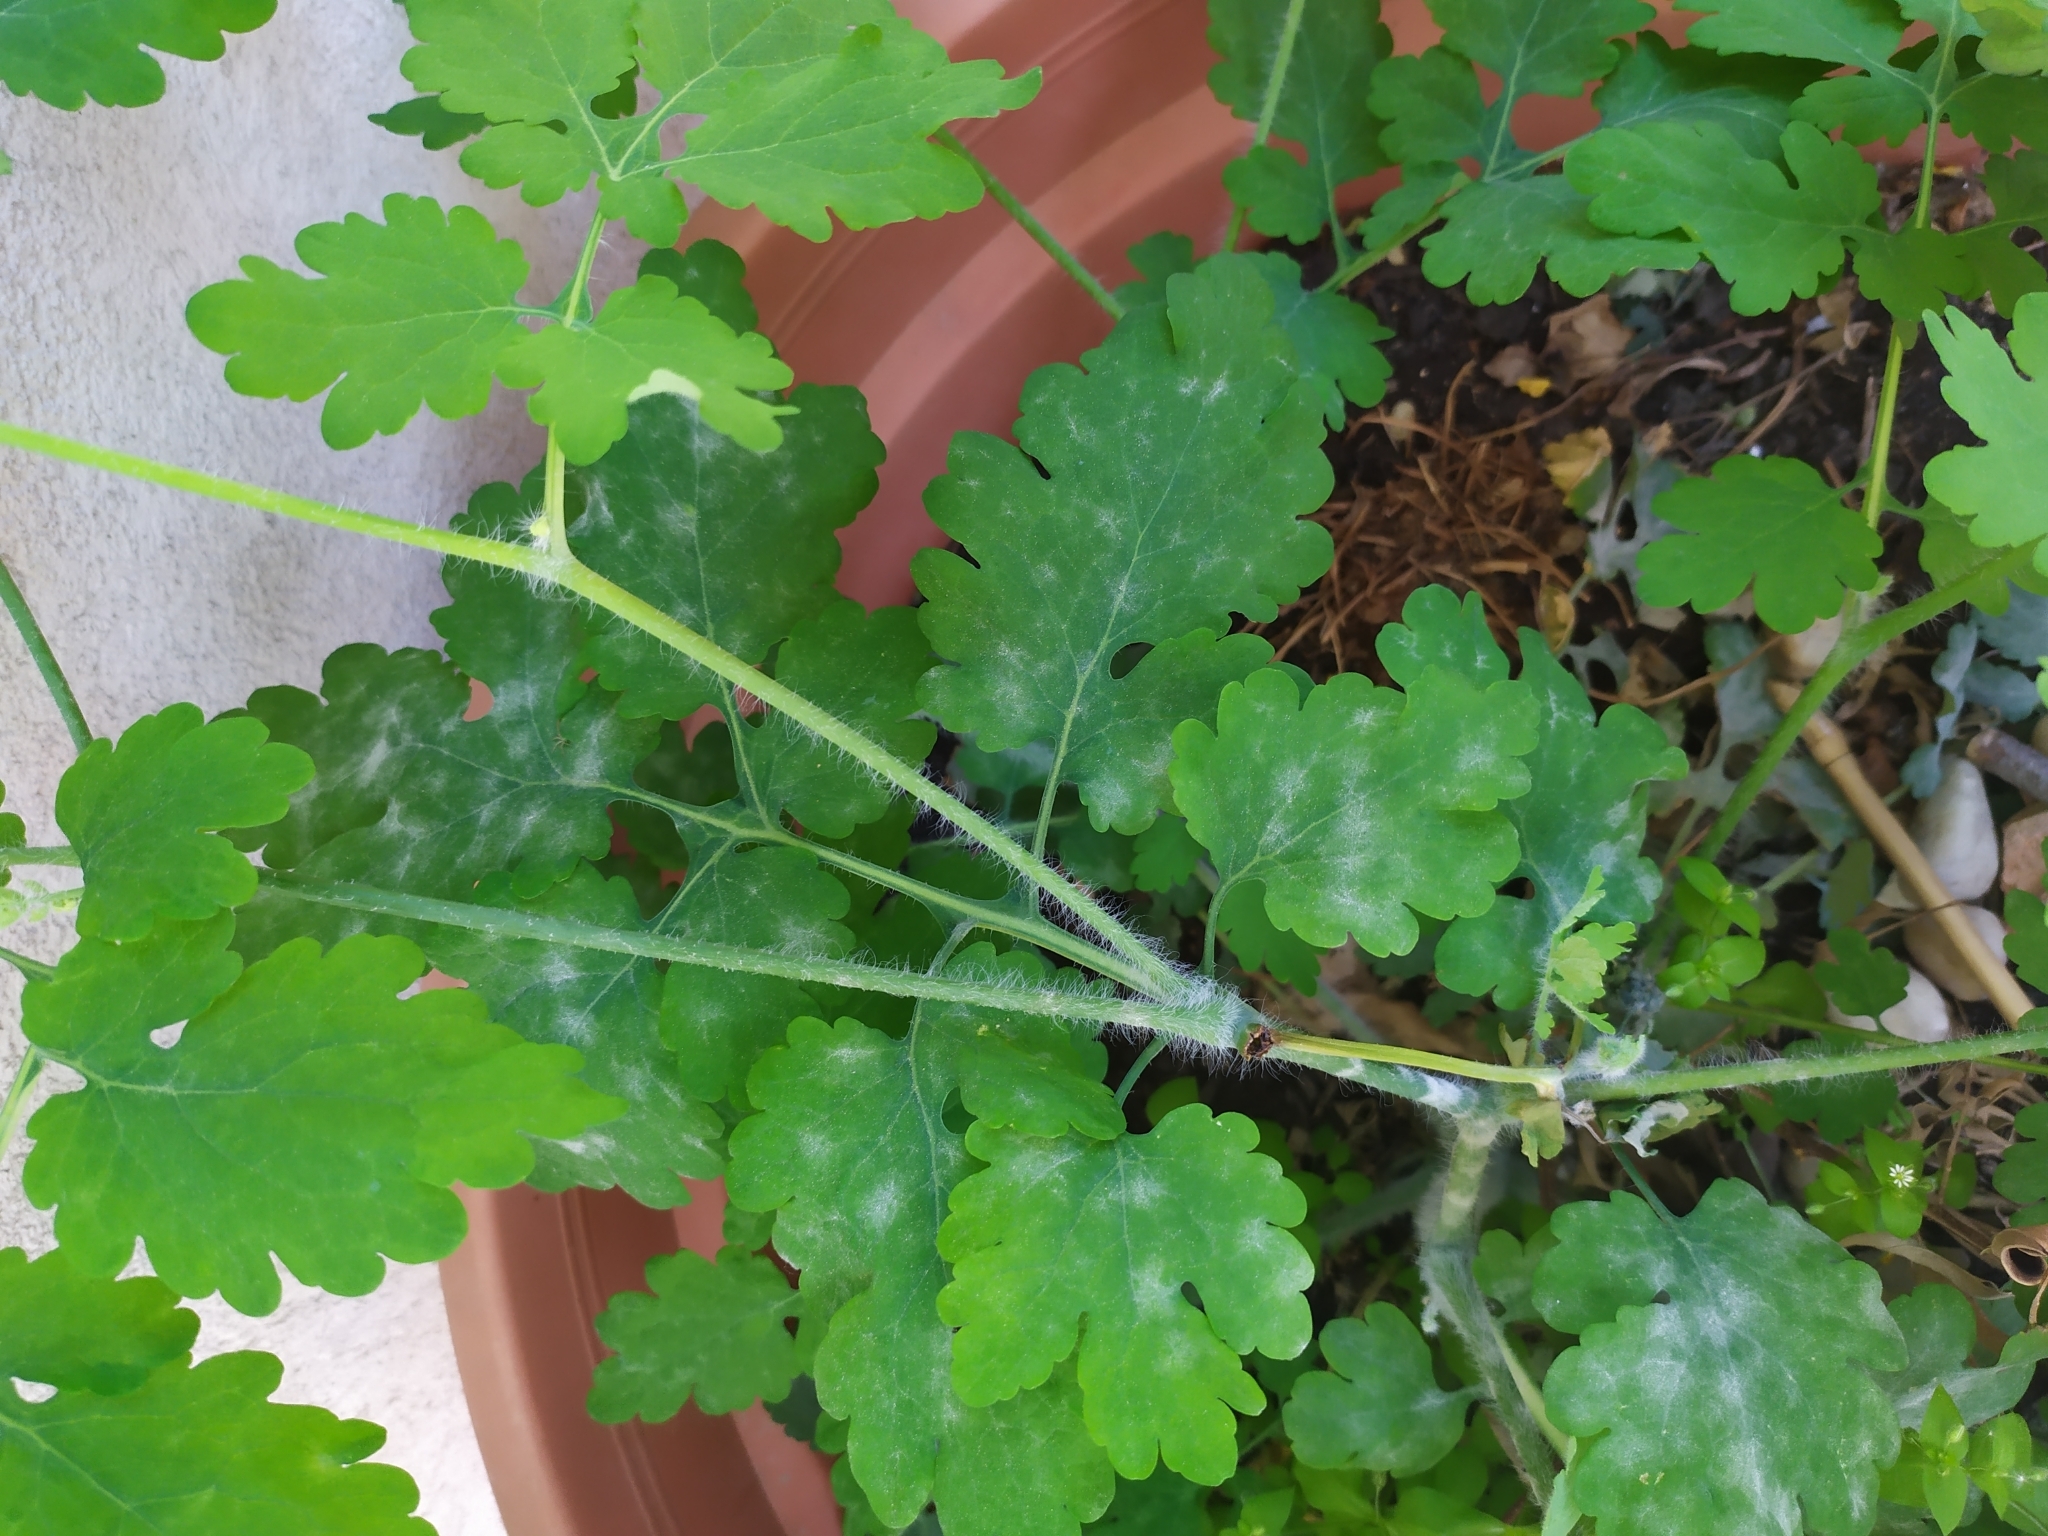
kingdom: Fungi
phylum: Ascomycota
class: Leotiomycetes
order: Helotiales
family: Erysiphaceae
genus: Erysiphe
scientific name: Erysiphe macleayae
